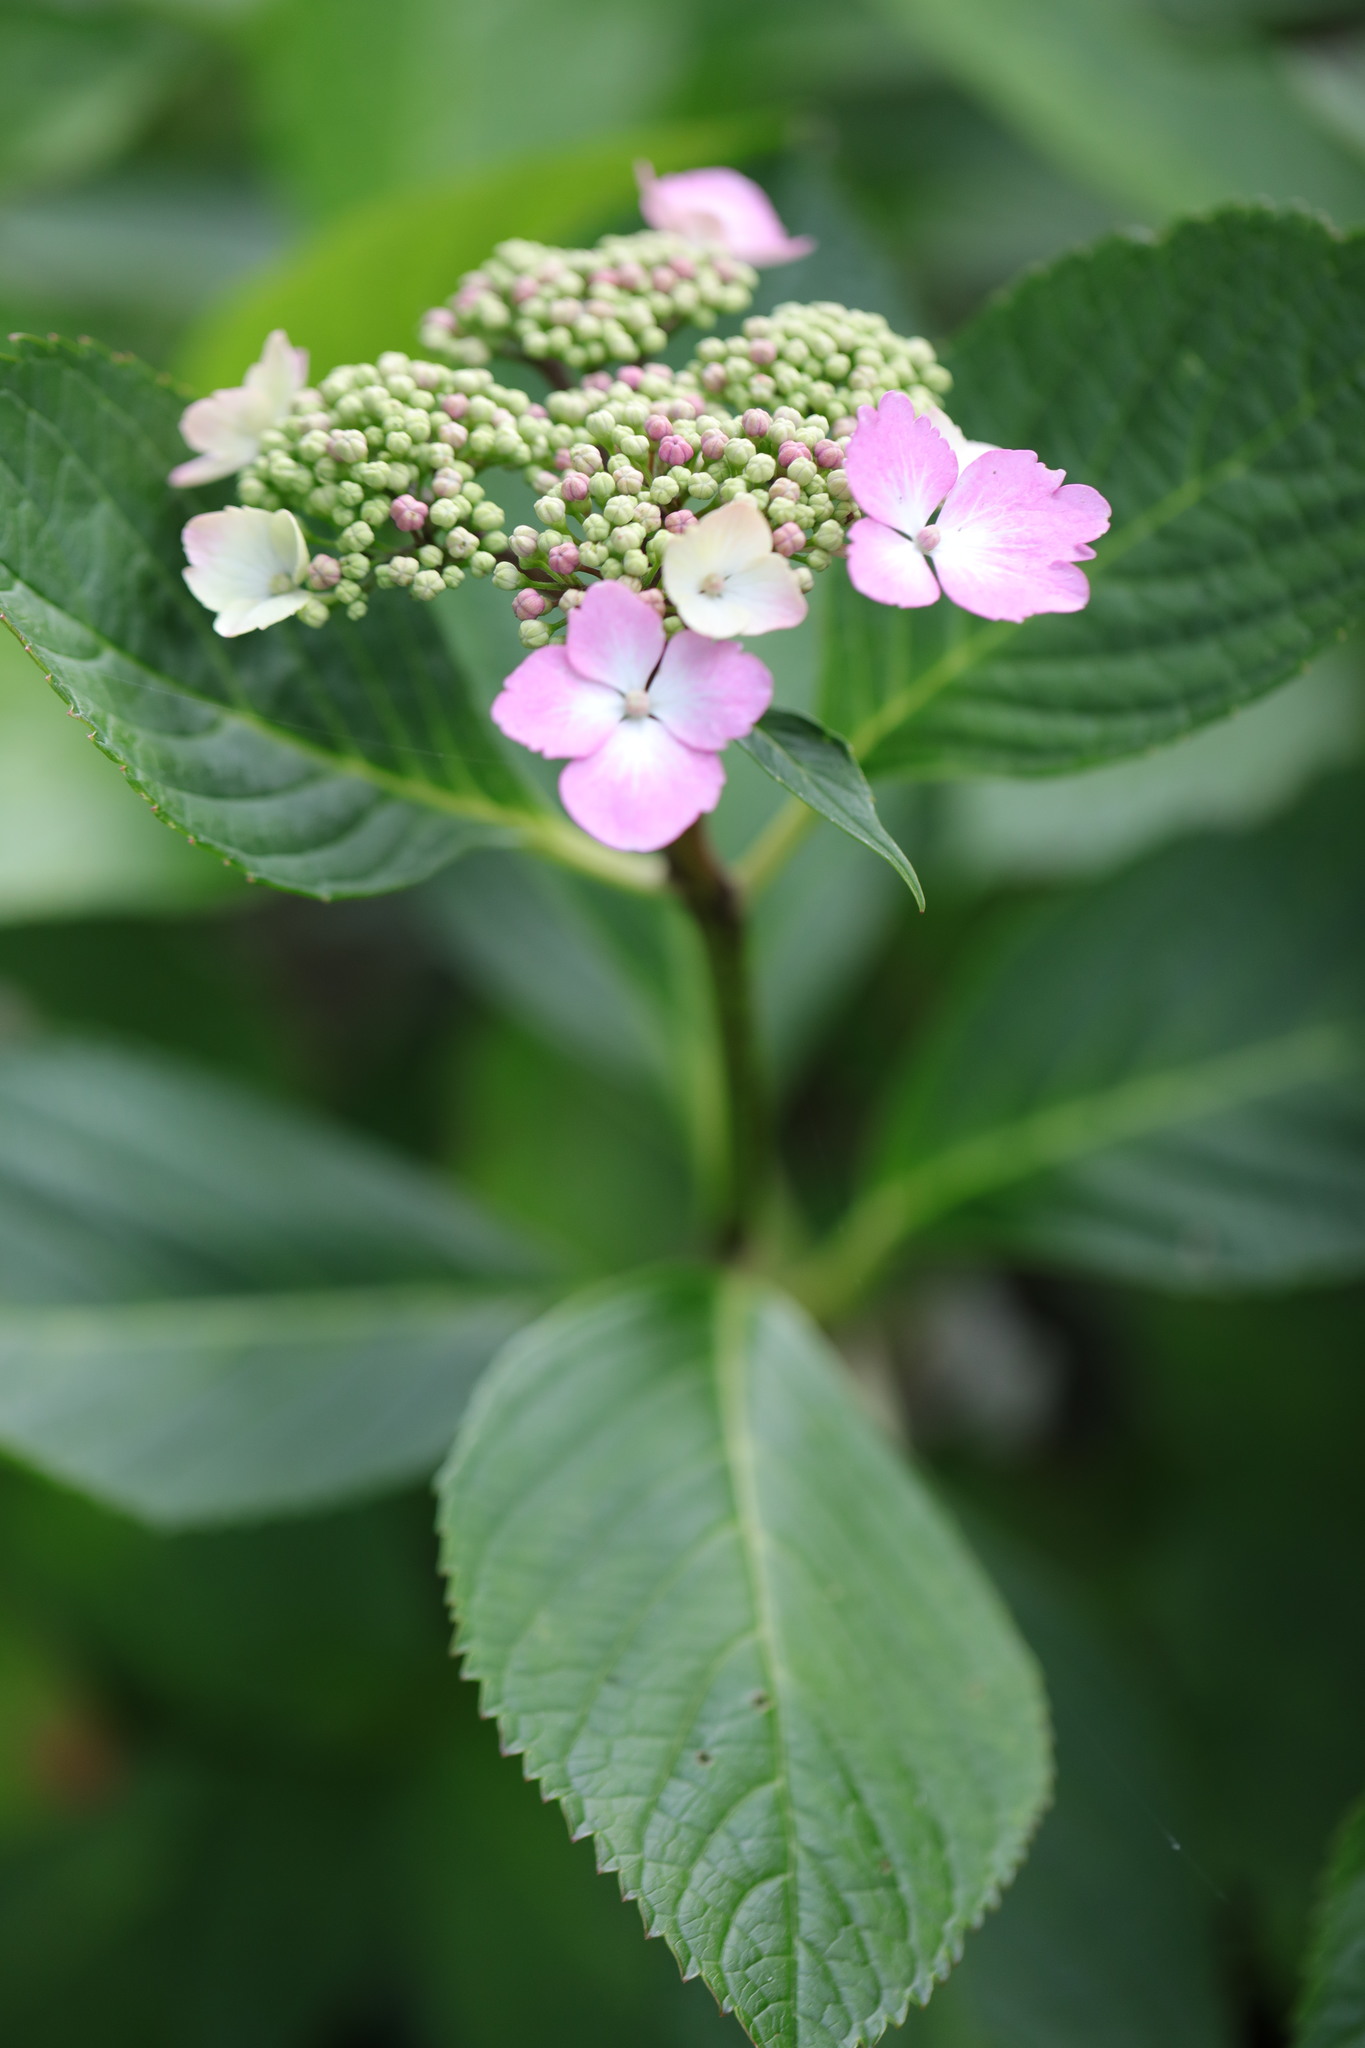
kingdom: Plantae
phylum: Tracheophyta
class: Magnoliopsida
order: Cornales
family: Hydrangeaceae
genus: Hydrangea
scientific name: Hydrangea macrophylla
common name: Hydrangea
